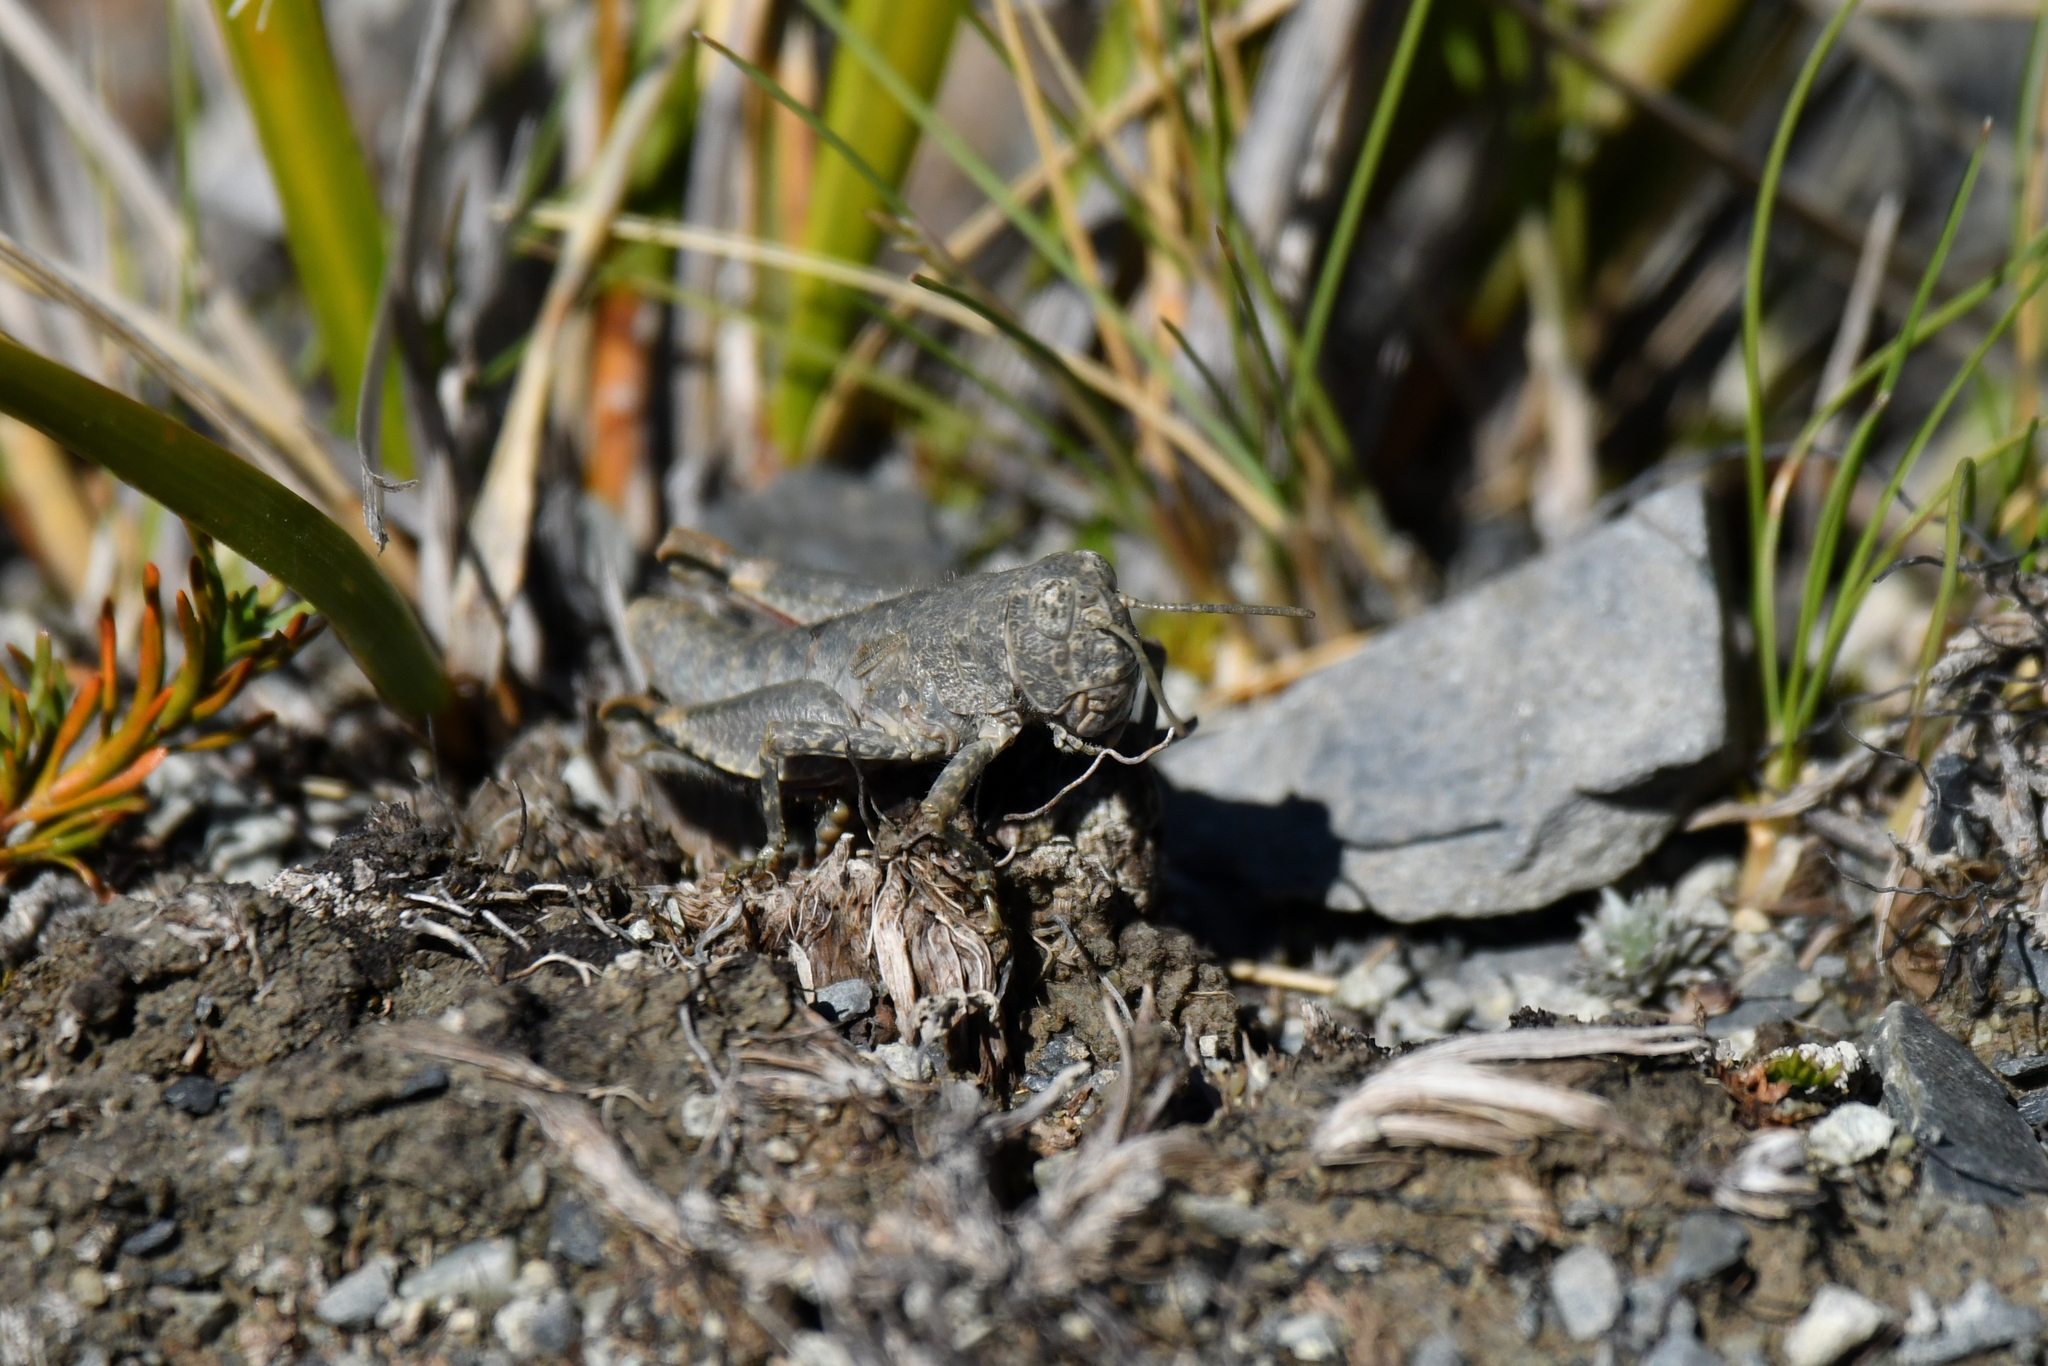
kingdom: Animalia
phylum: Arthropoda
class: Insecta
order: Orthoptera
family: Acrididae
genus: Sigaus
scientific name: Sigaus
